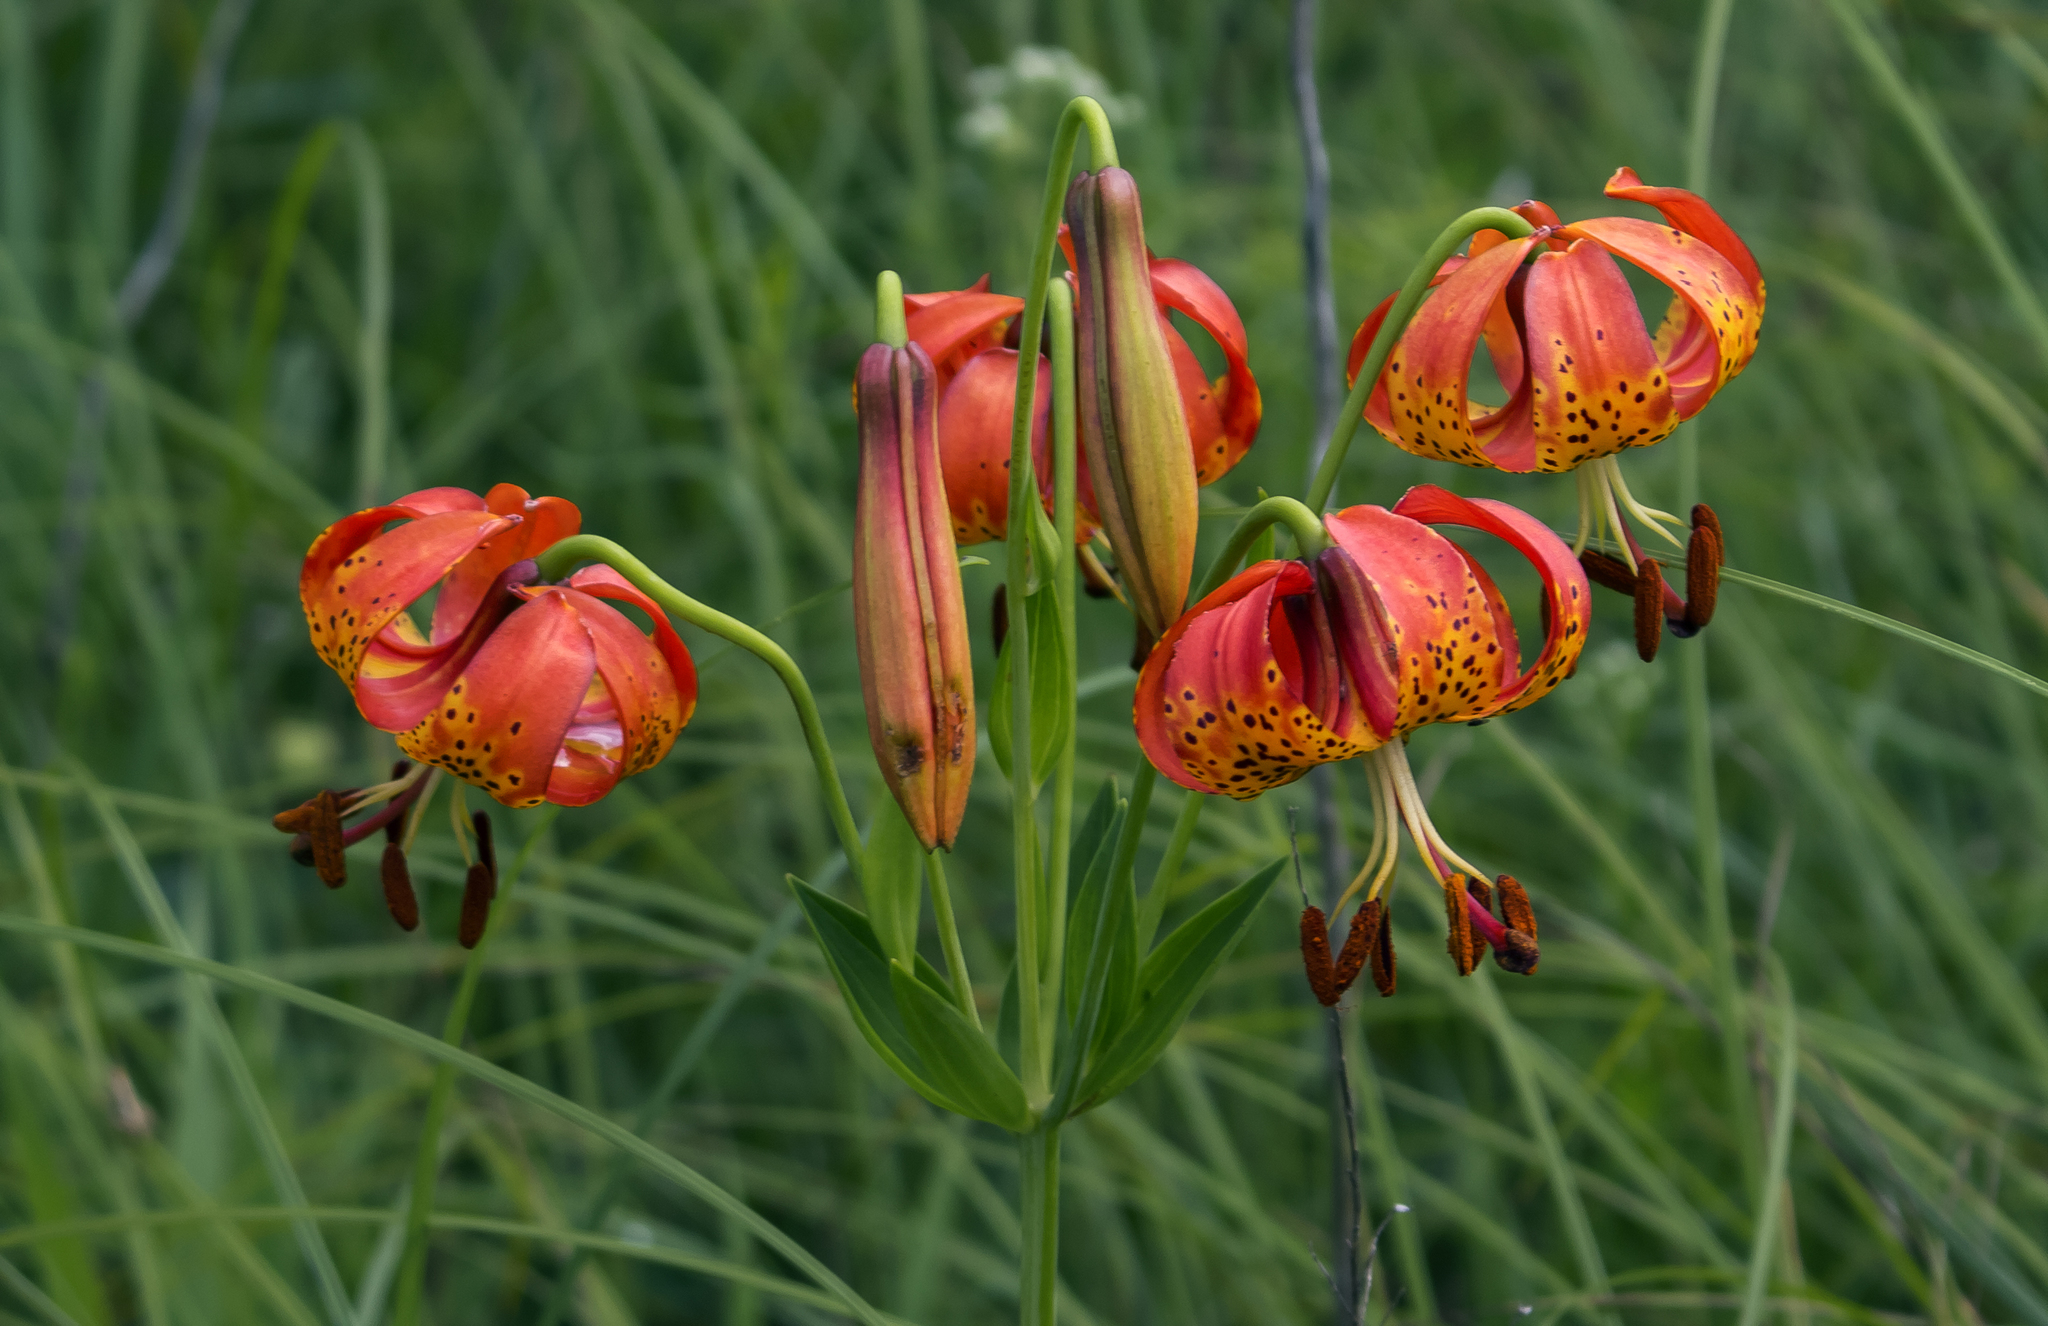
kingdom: Plantae
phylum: Tracheophyta
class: Liliopsida
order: Liliales
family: Liliaceae
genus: Lilium
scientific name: Lilium michiganense
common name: Michigan lily
